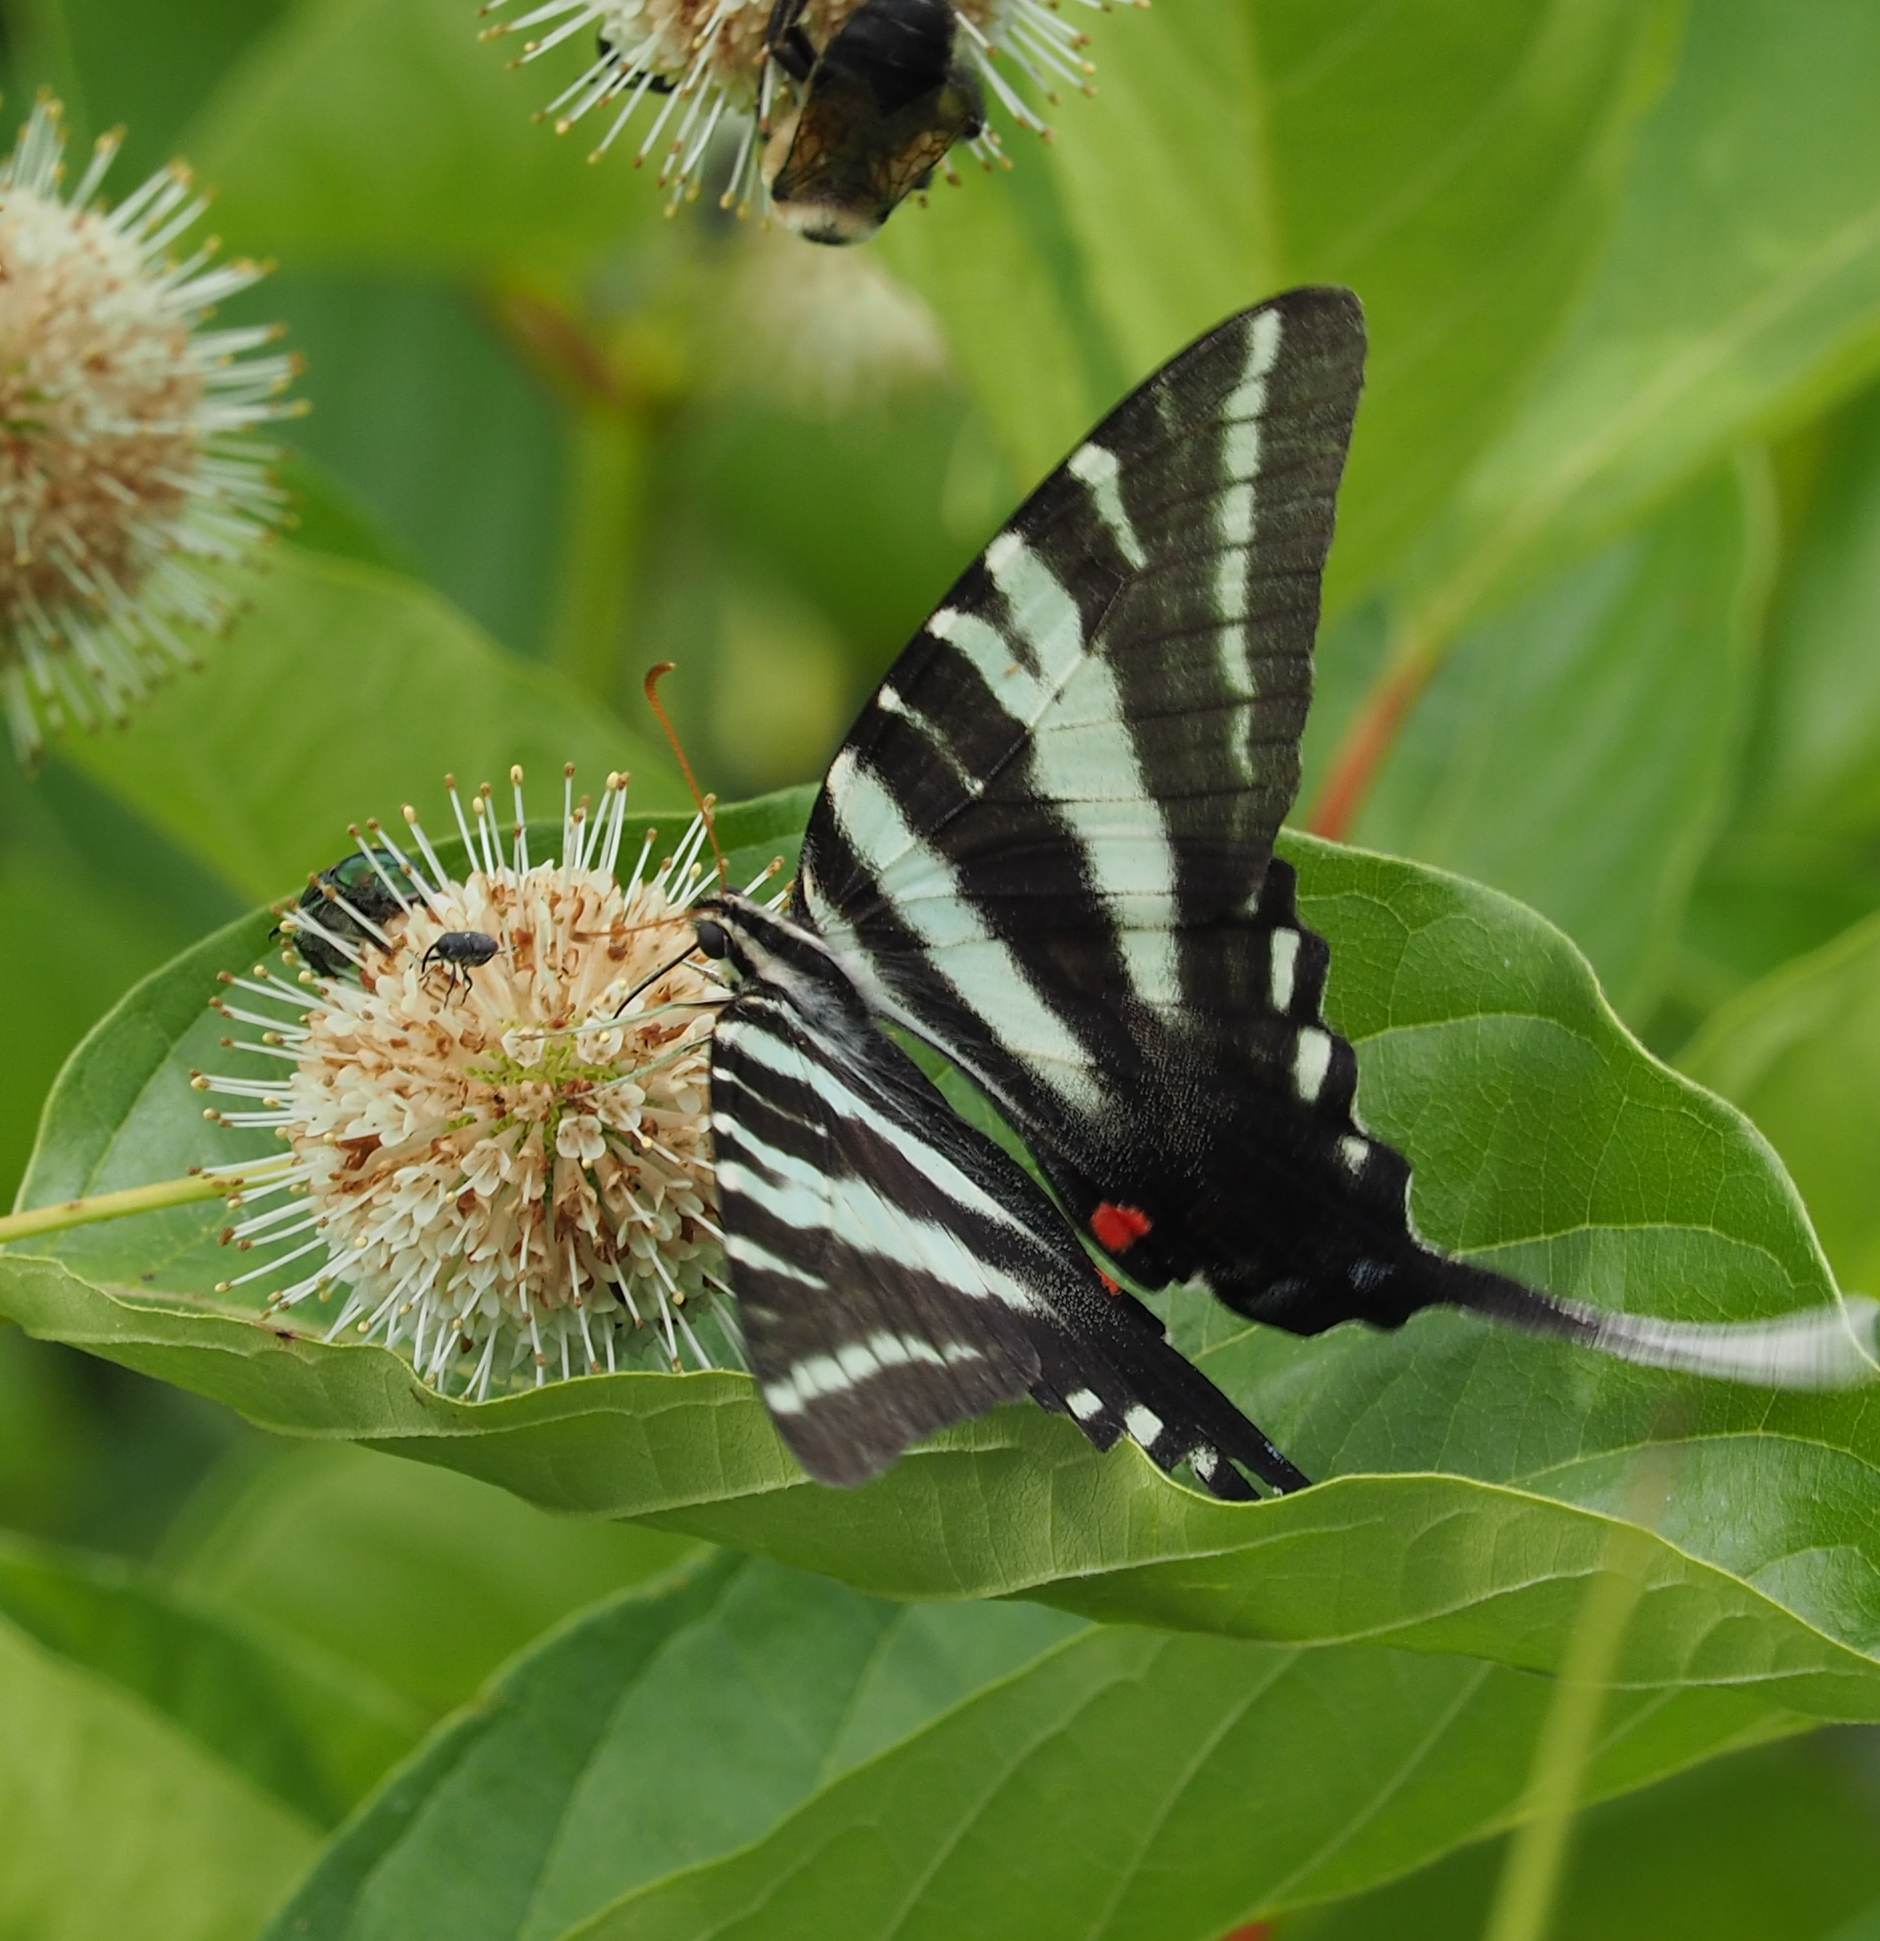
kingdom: Animalia
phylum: Arthropoda
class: Insecta
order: Lepidoptera
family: Papilionidae
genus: Protographium
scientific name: Protographium marcellus
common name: Zebra swallowtail
